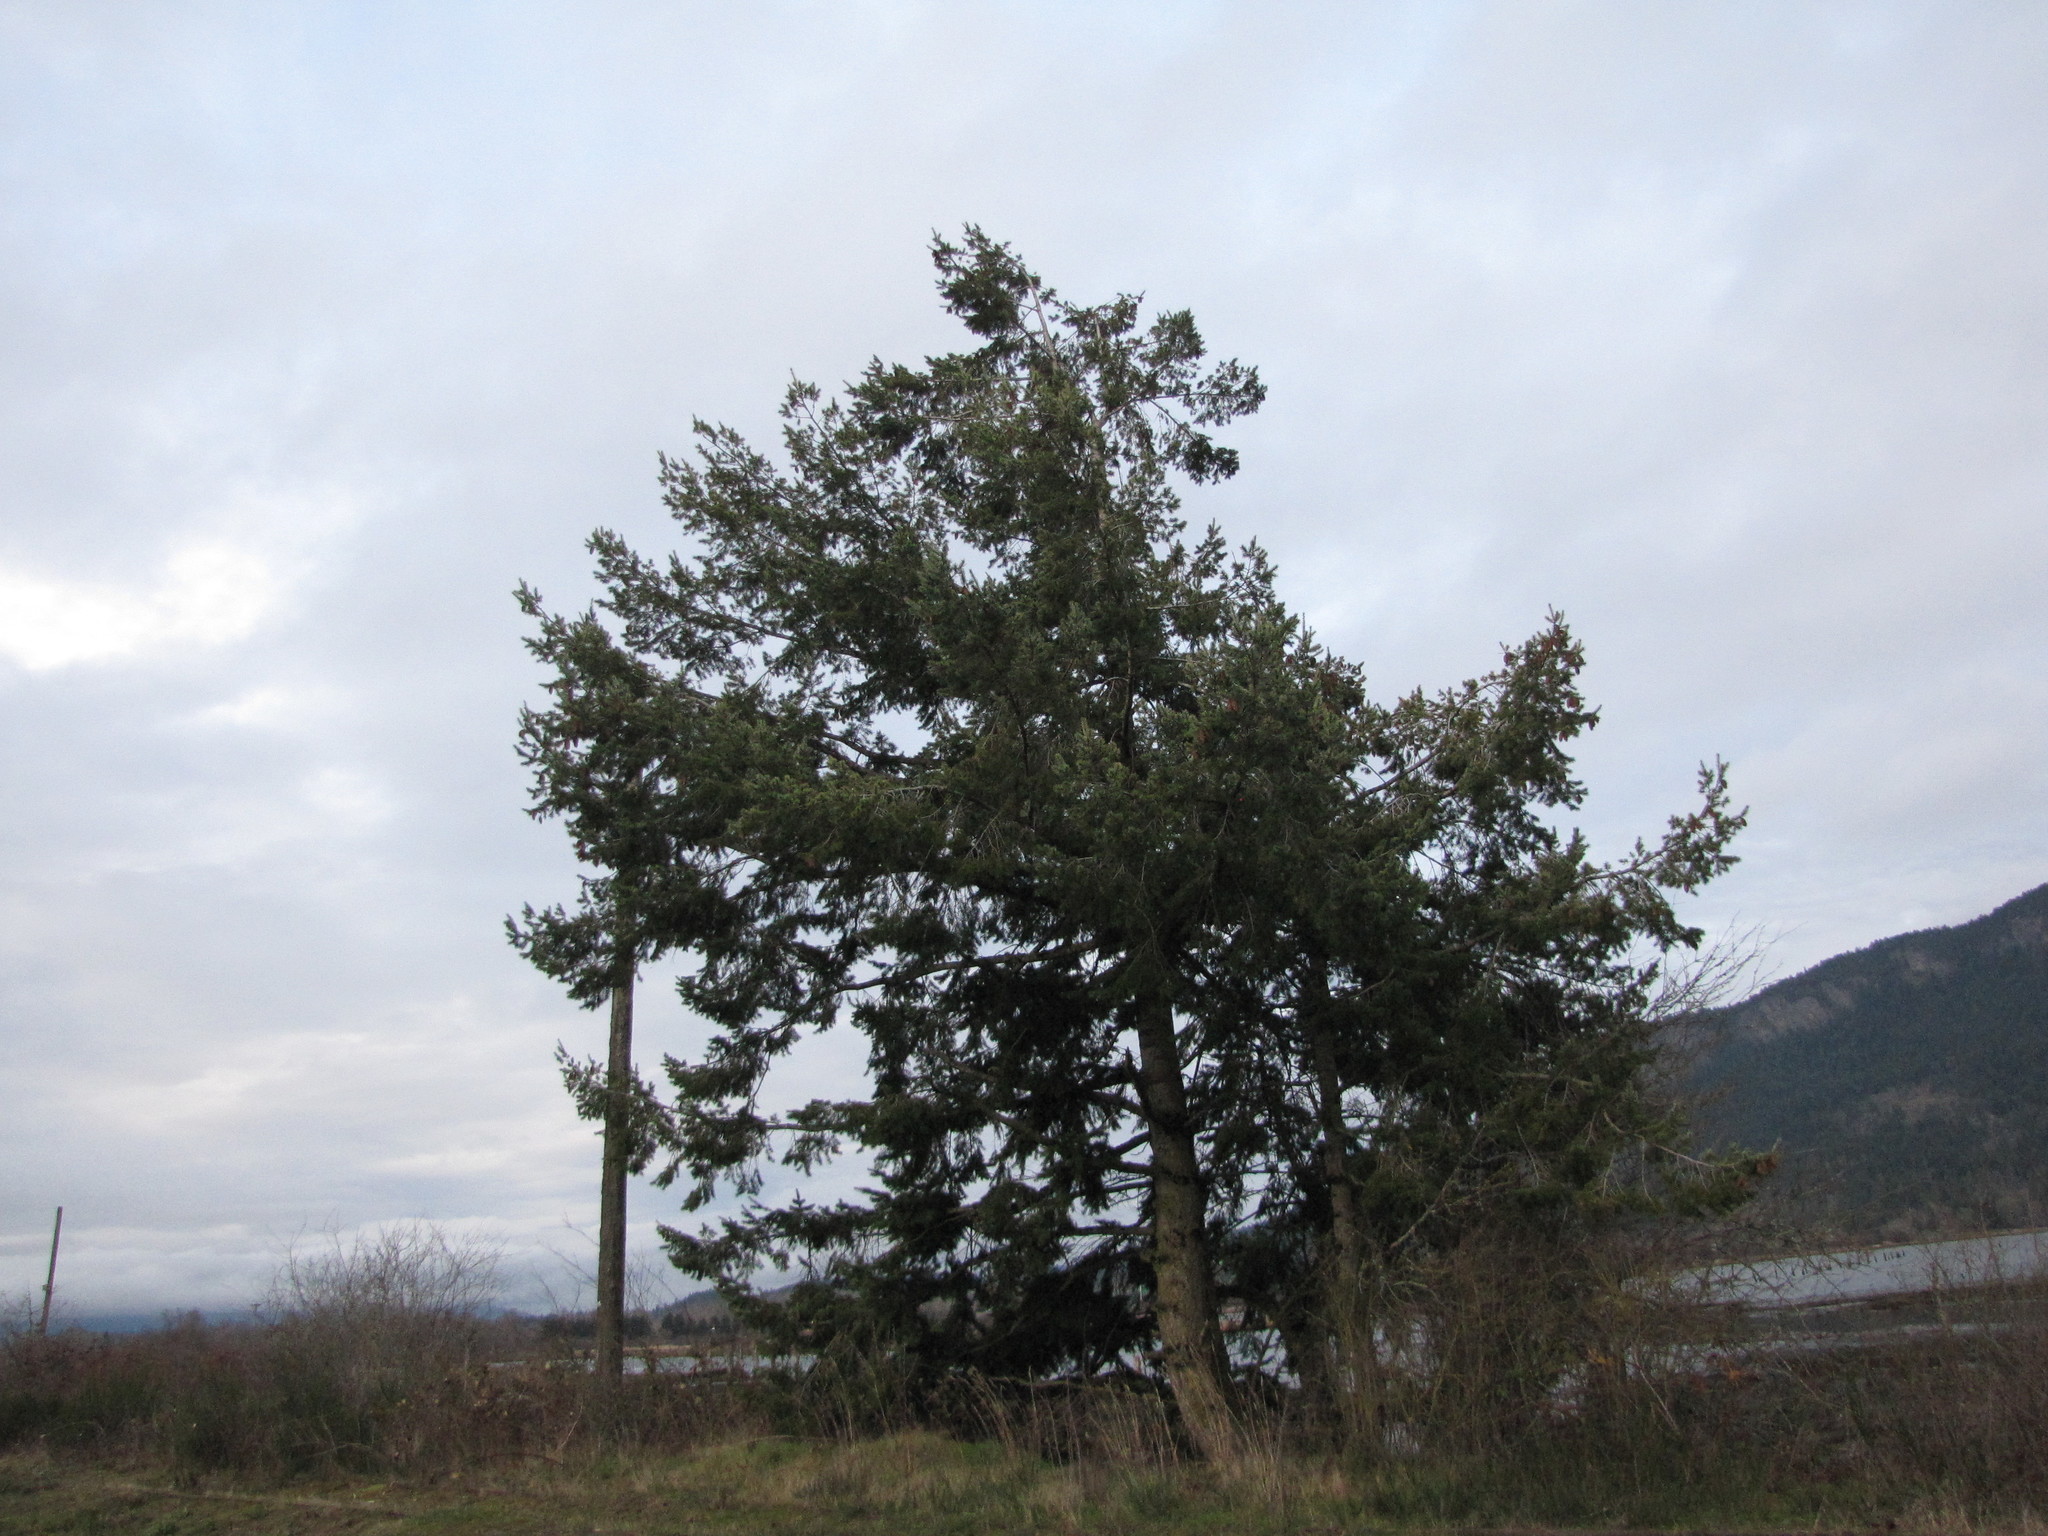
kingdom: Plantae
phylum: Tracheophyta
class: Pinopsida
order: Pinales
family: Pinaceae
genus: Pseudotsuga
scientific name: Pseudotsuga menziesii
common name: Douglas fir
